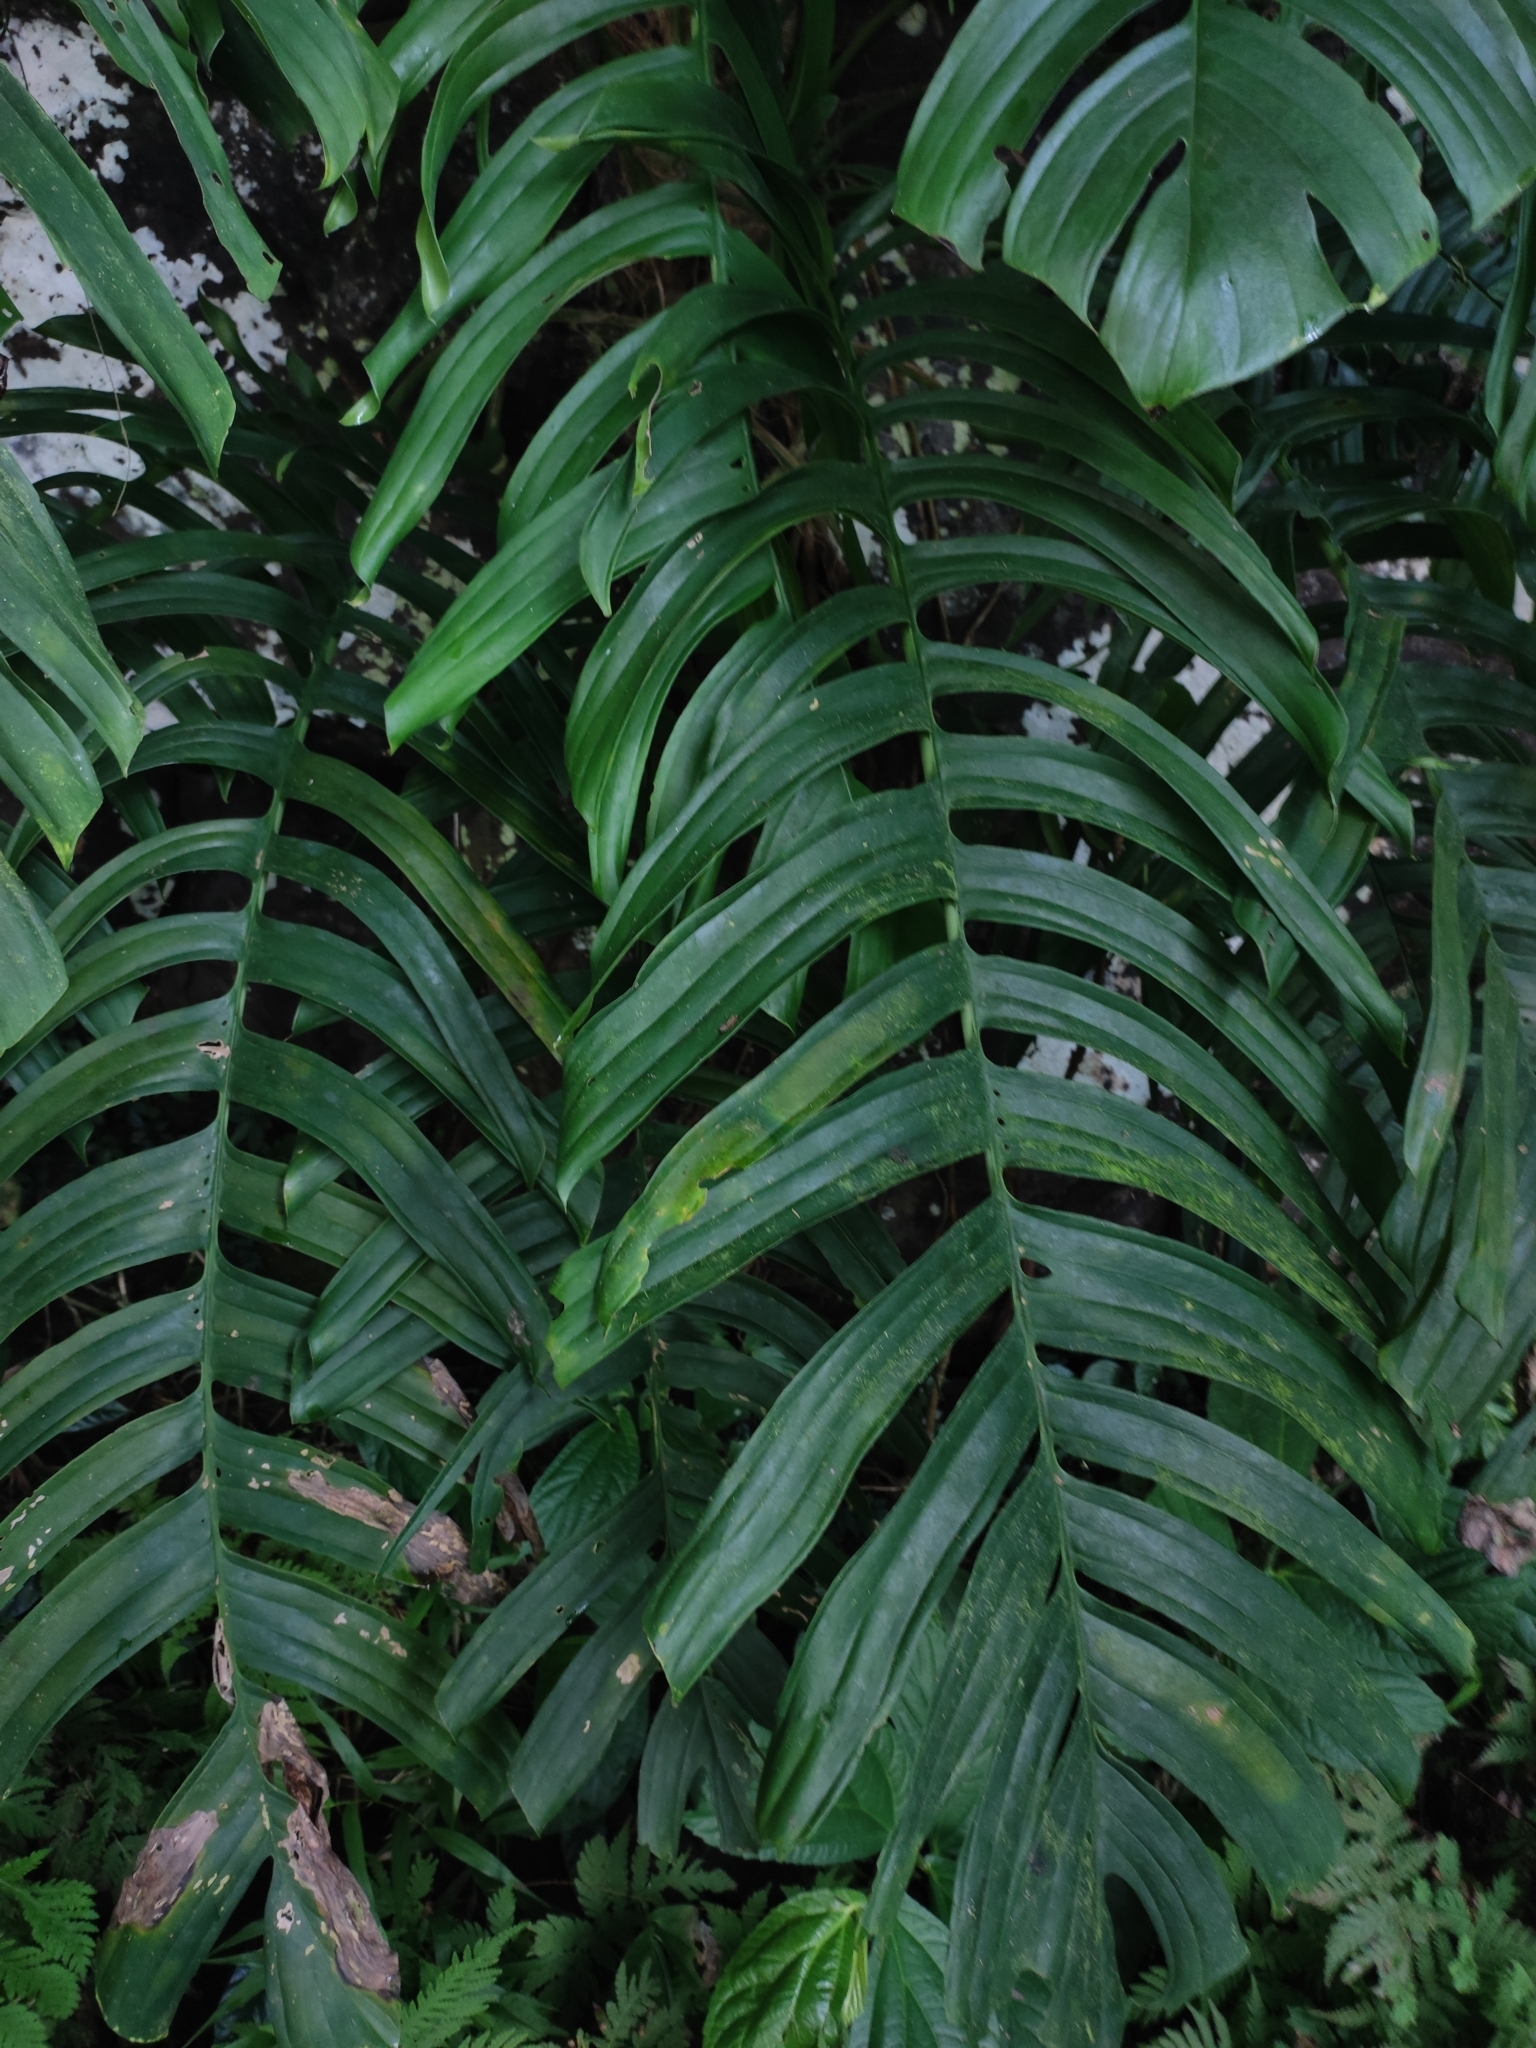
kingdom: Plantae
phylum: Tracheophyta
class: Liliopsida
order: Alismatales
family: Araceae
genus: Rhaphidophora
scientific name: Rhaphidophora korthalsii
